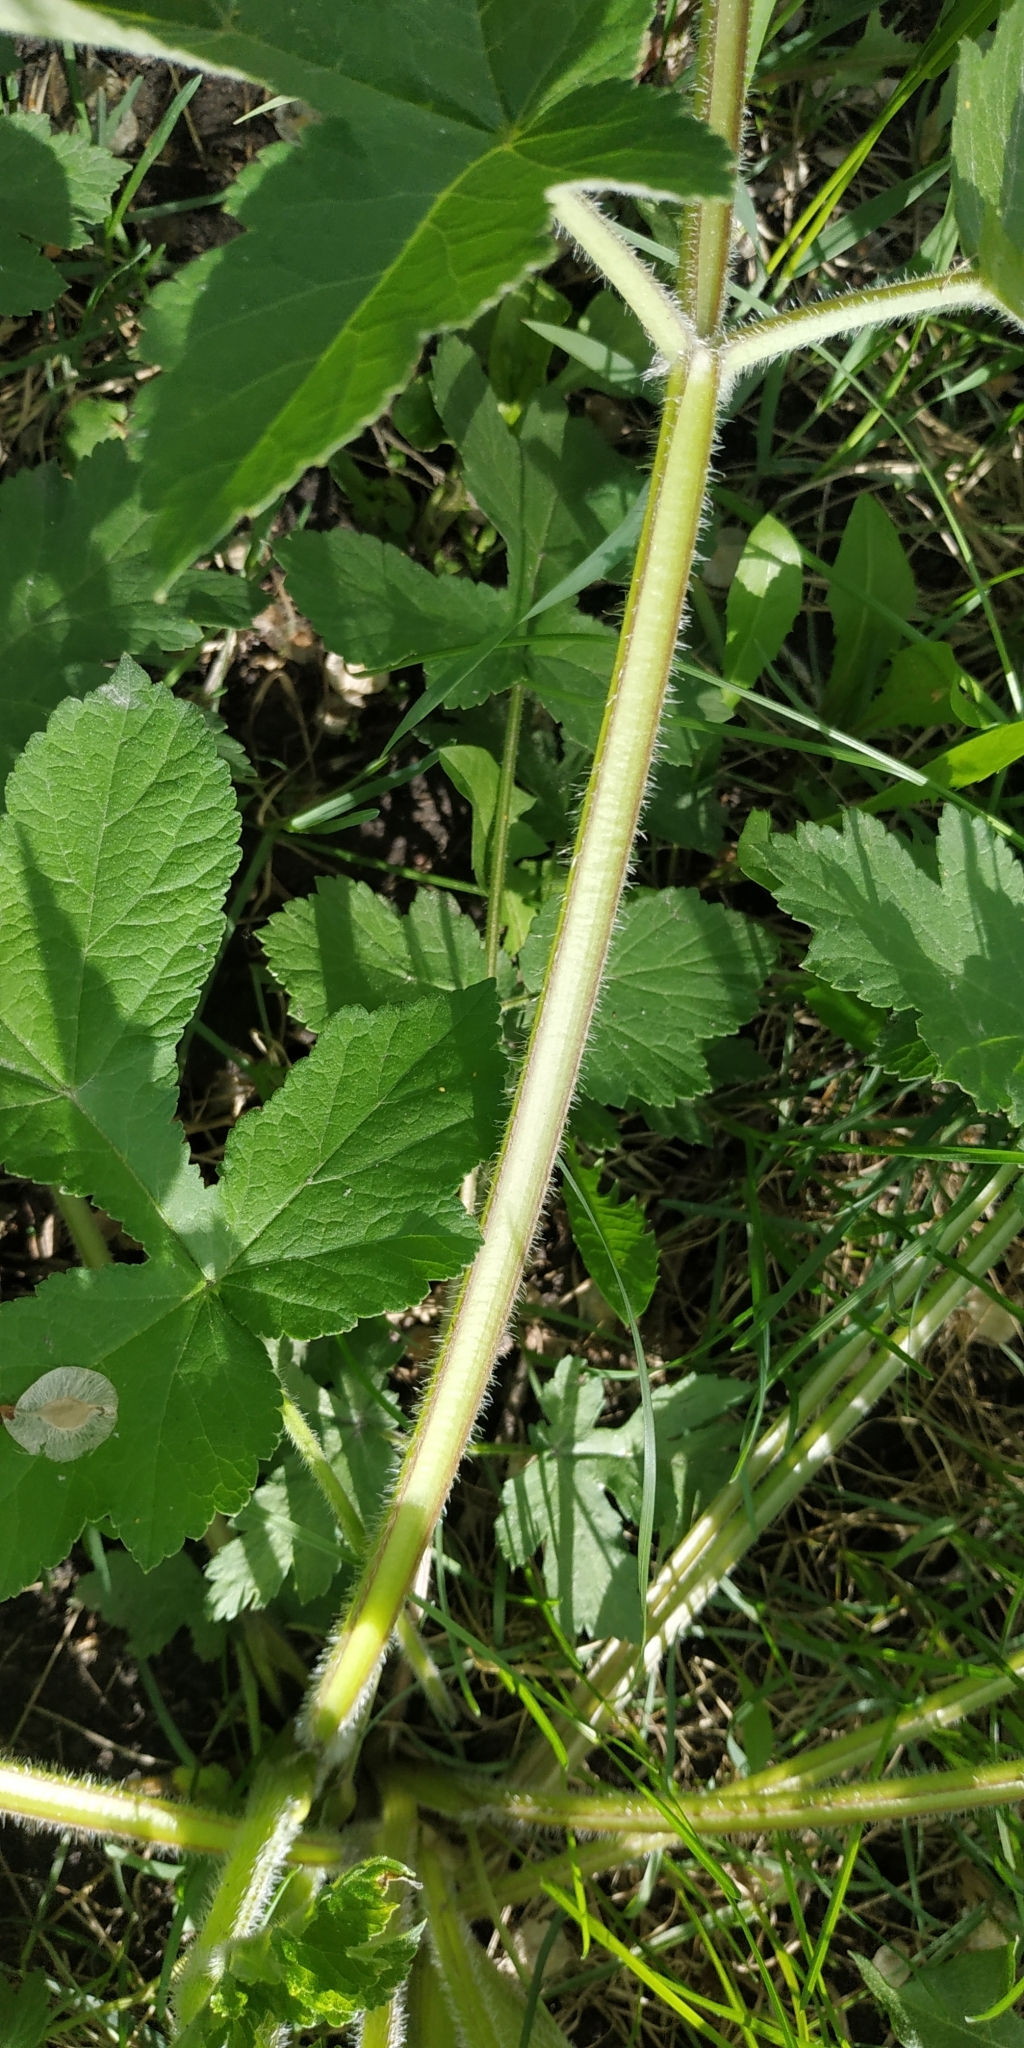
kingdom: Plantae
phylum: Tracheophyta
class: Magnoliopsida
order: Apiales
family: Apiaceae
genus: Heracleum
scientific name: Heracleum sphondylium
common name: Hogweed
